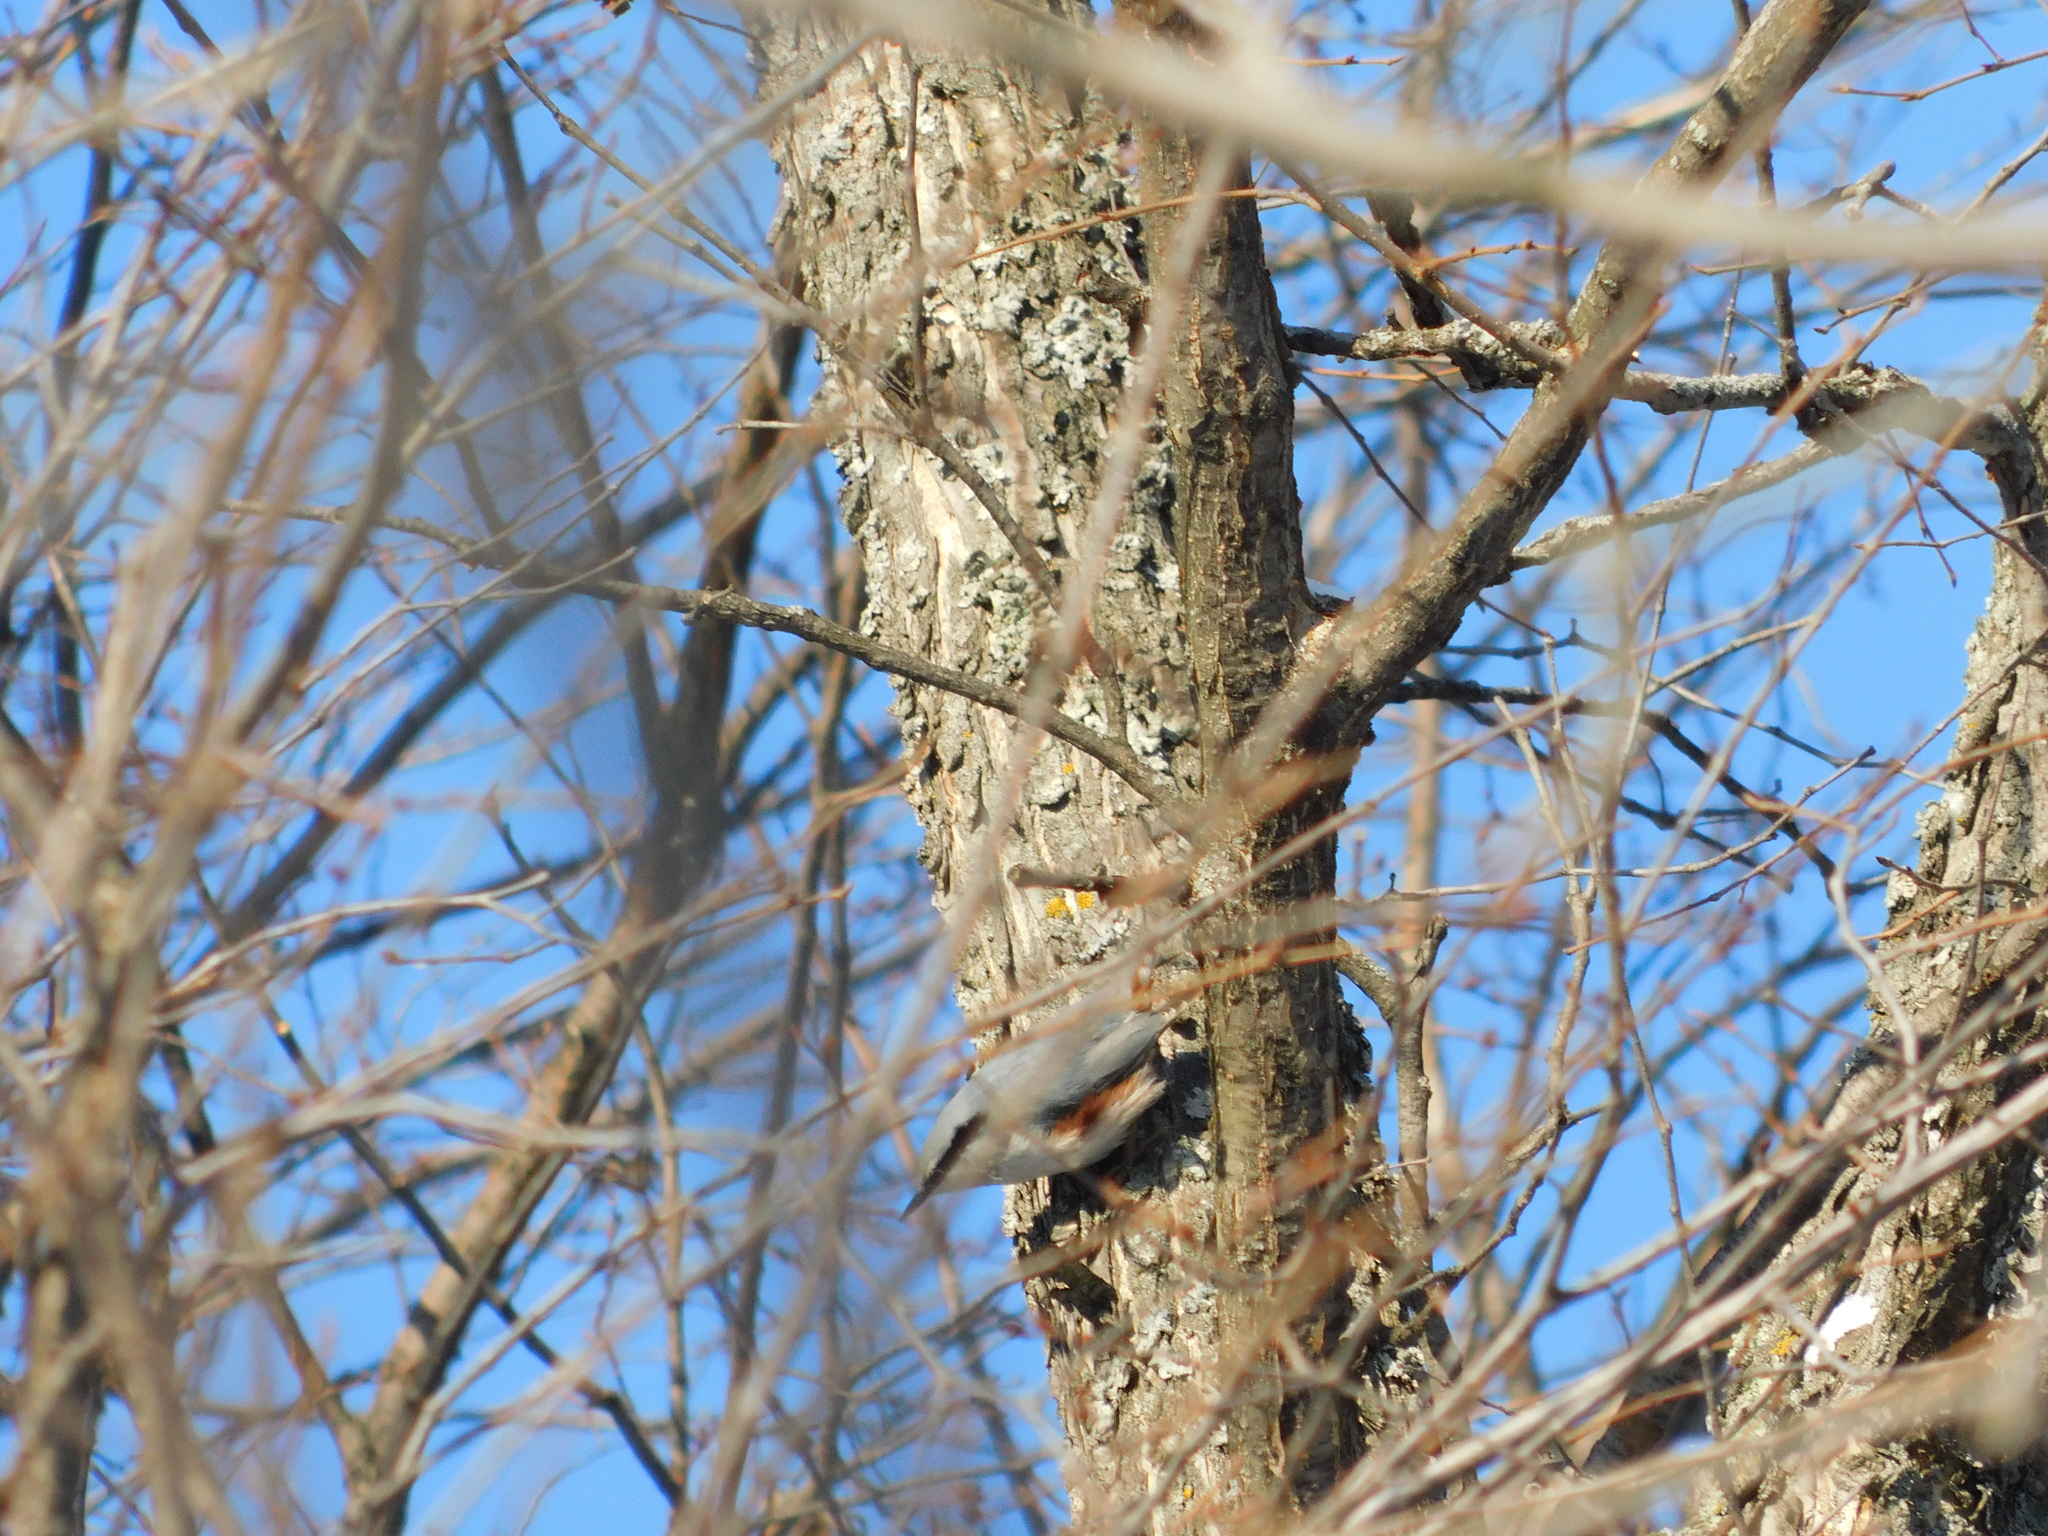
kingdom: Animalia
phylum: Chordata
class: Aves
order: Passeriformes
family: Sittidae
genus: Sitta
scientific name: Sitta europaea
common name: Eurasian nuthatch
